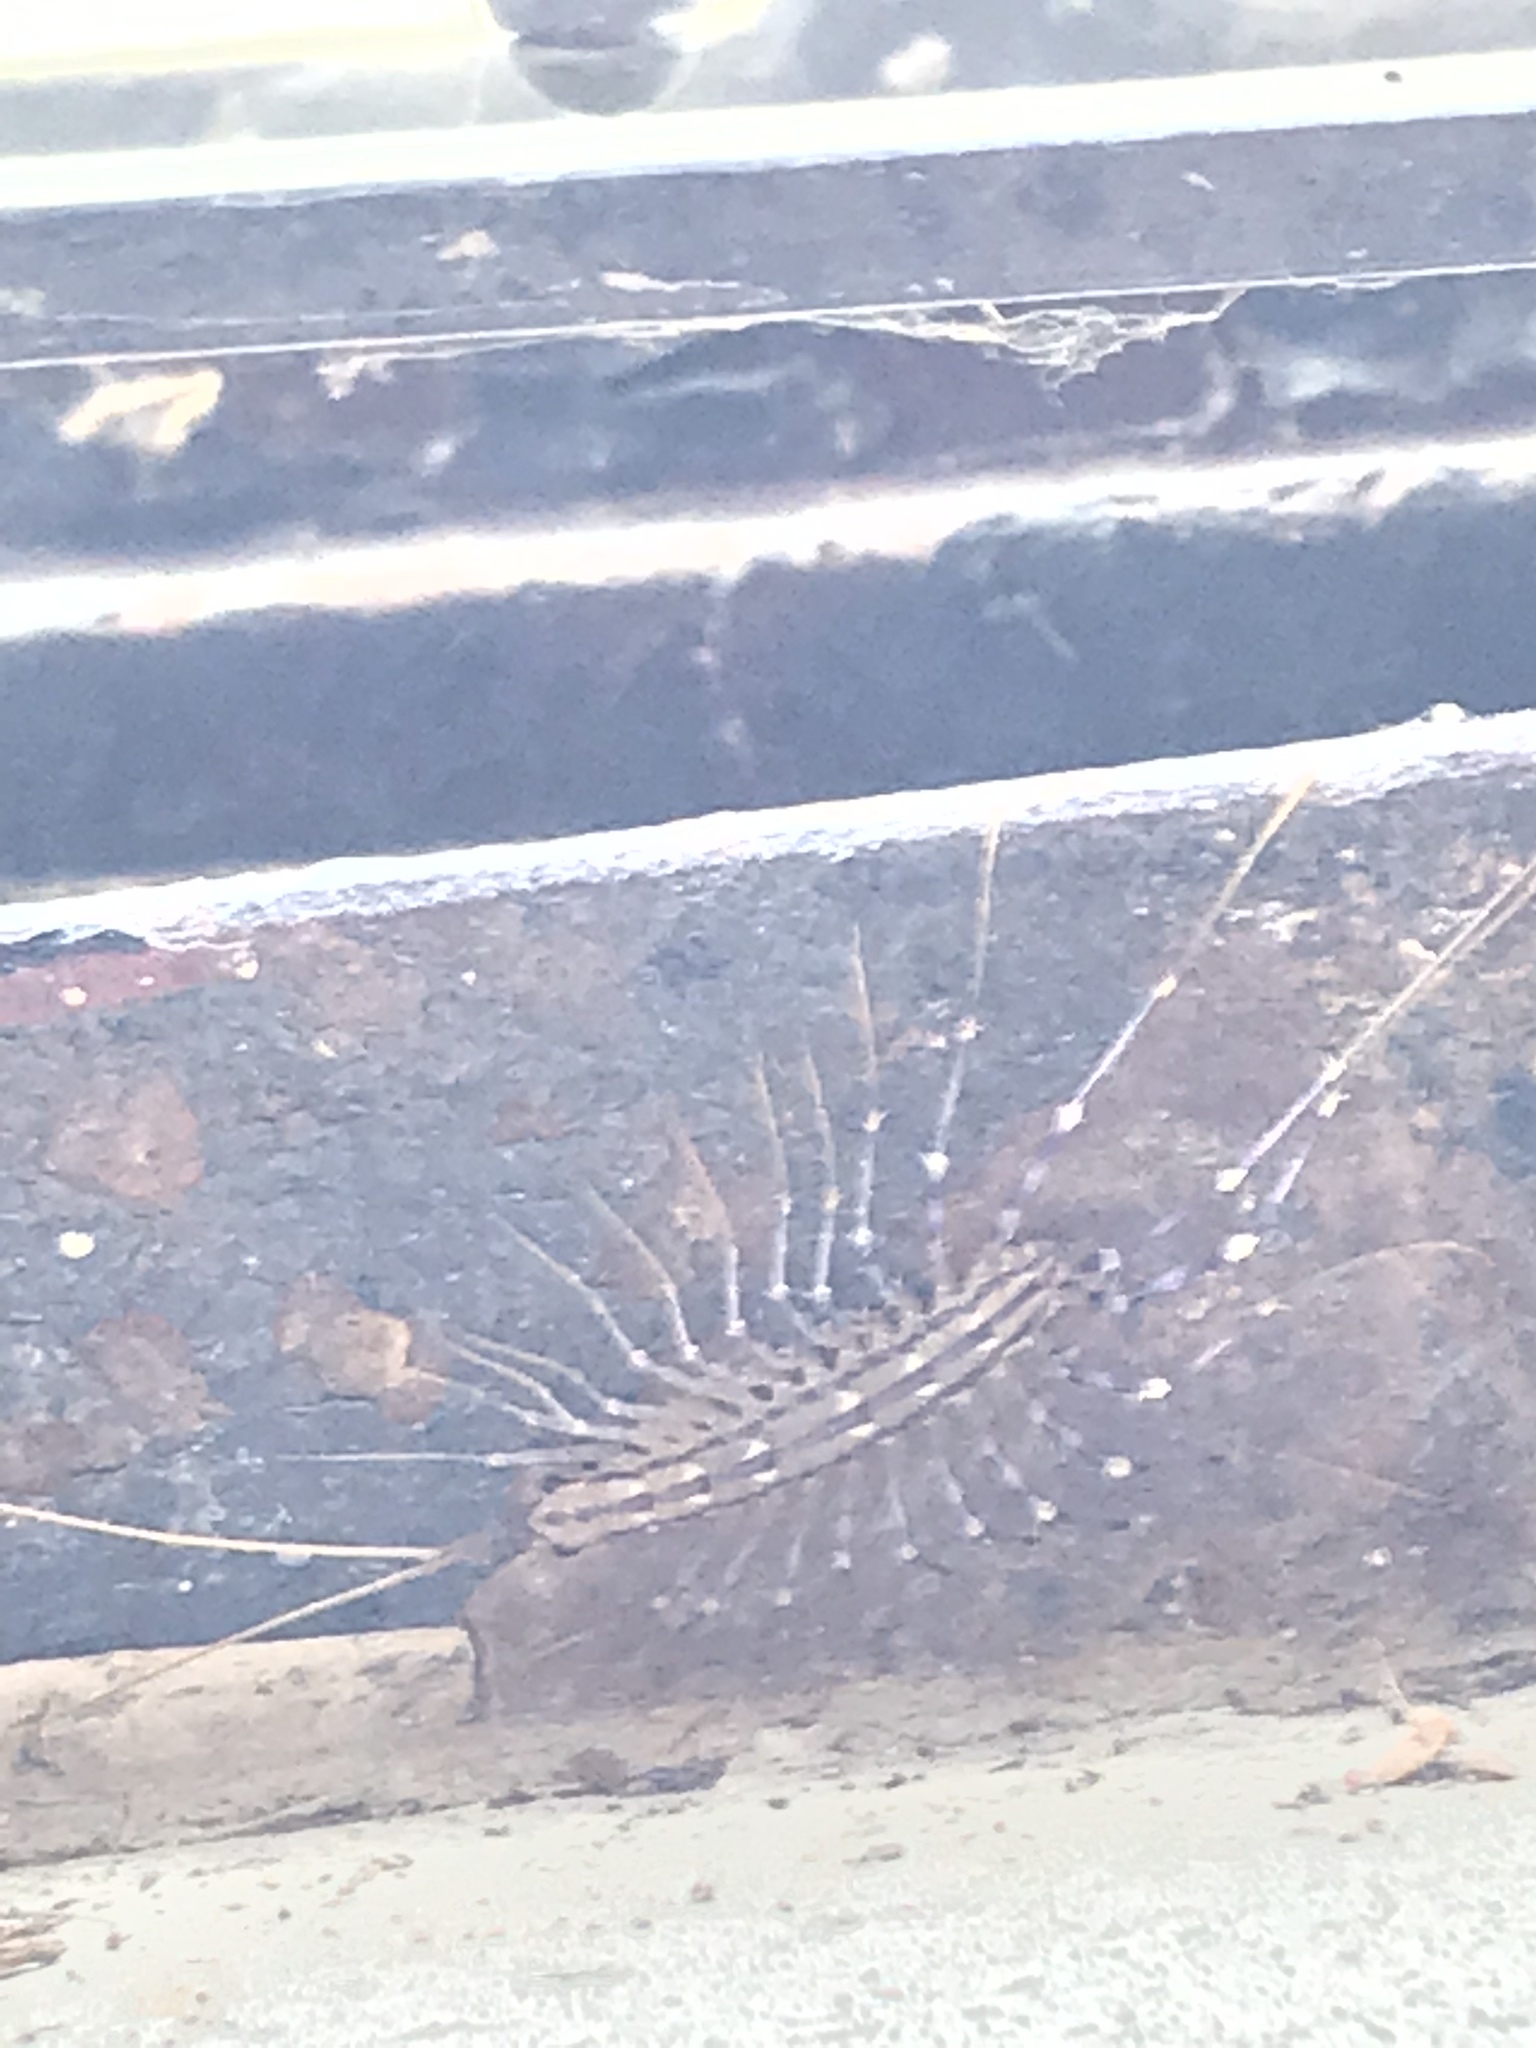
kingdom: Animalia
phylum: Arthropoda
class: Chilopoda
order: Scutigeromorpha
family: Scutigeridae
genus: Scutigera
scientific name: Scutigera coleoptrata
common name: House centipede
